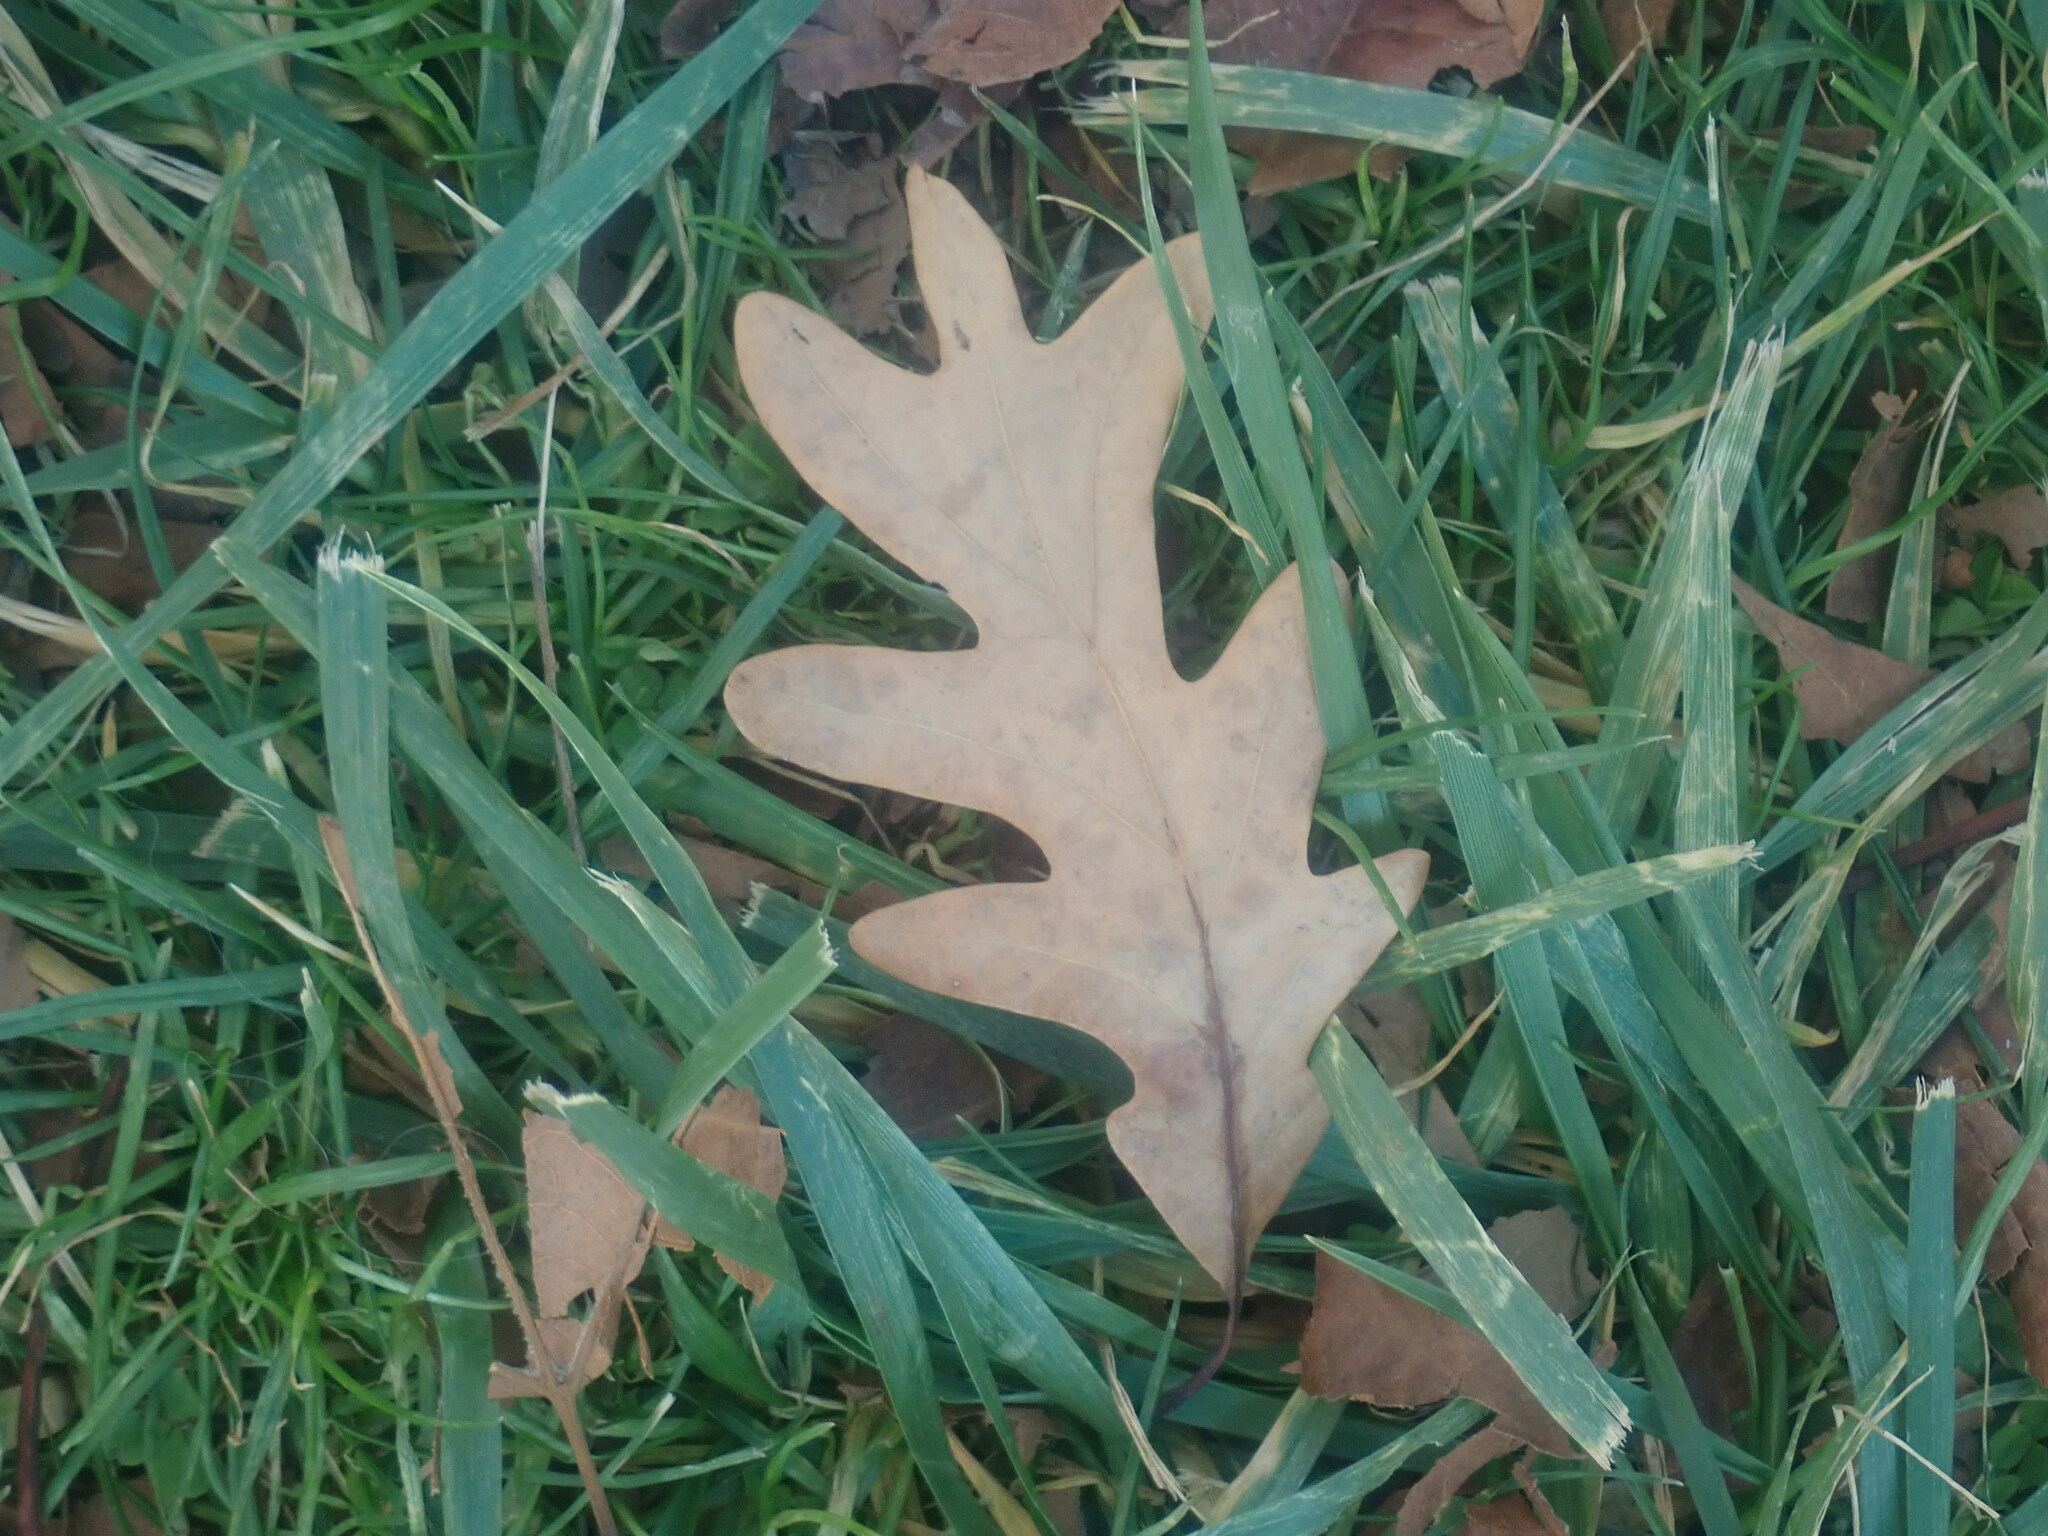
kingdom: Plantae
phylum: Tracheophyta
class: Magnoliopsida
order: Fagales
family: Fagaceae
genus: Quercus
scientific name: Quercus alba
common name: White oak
